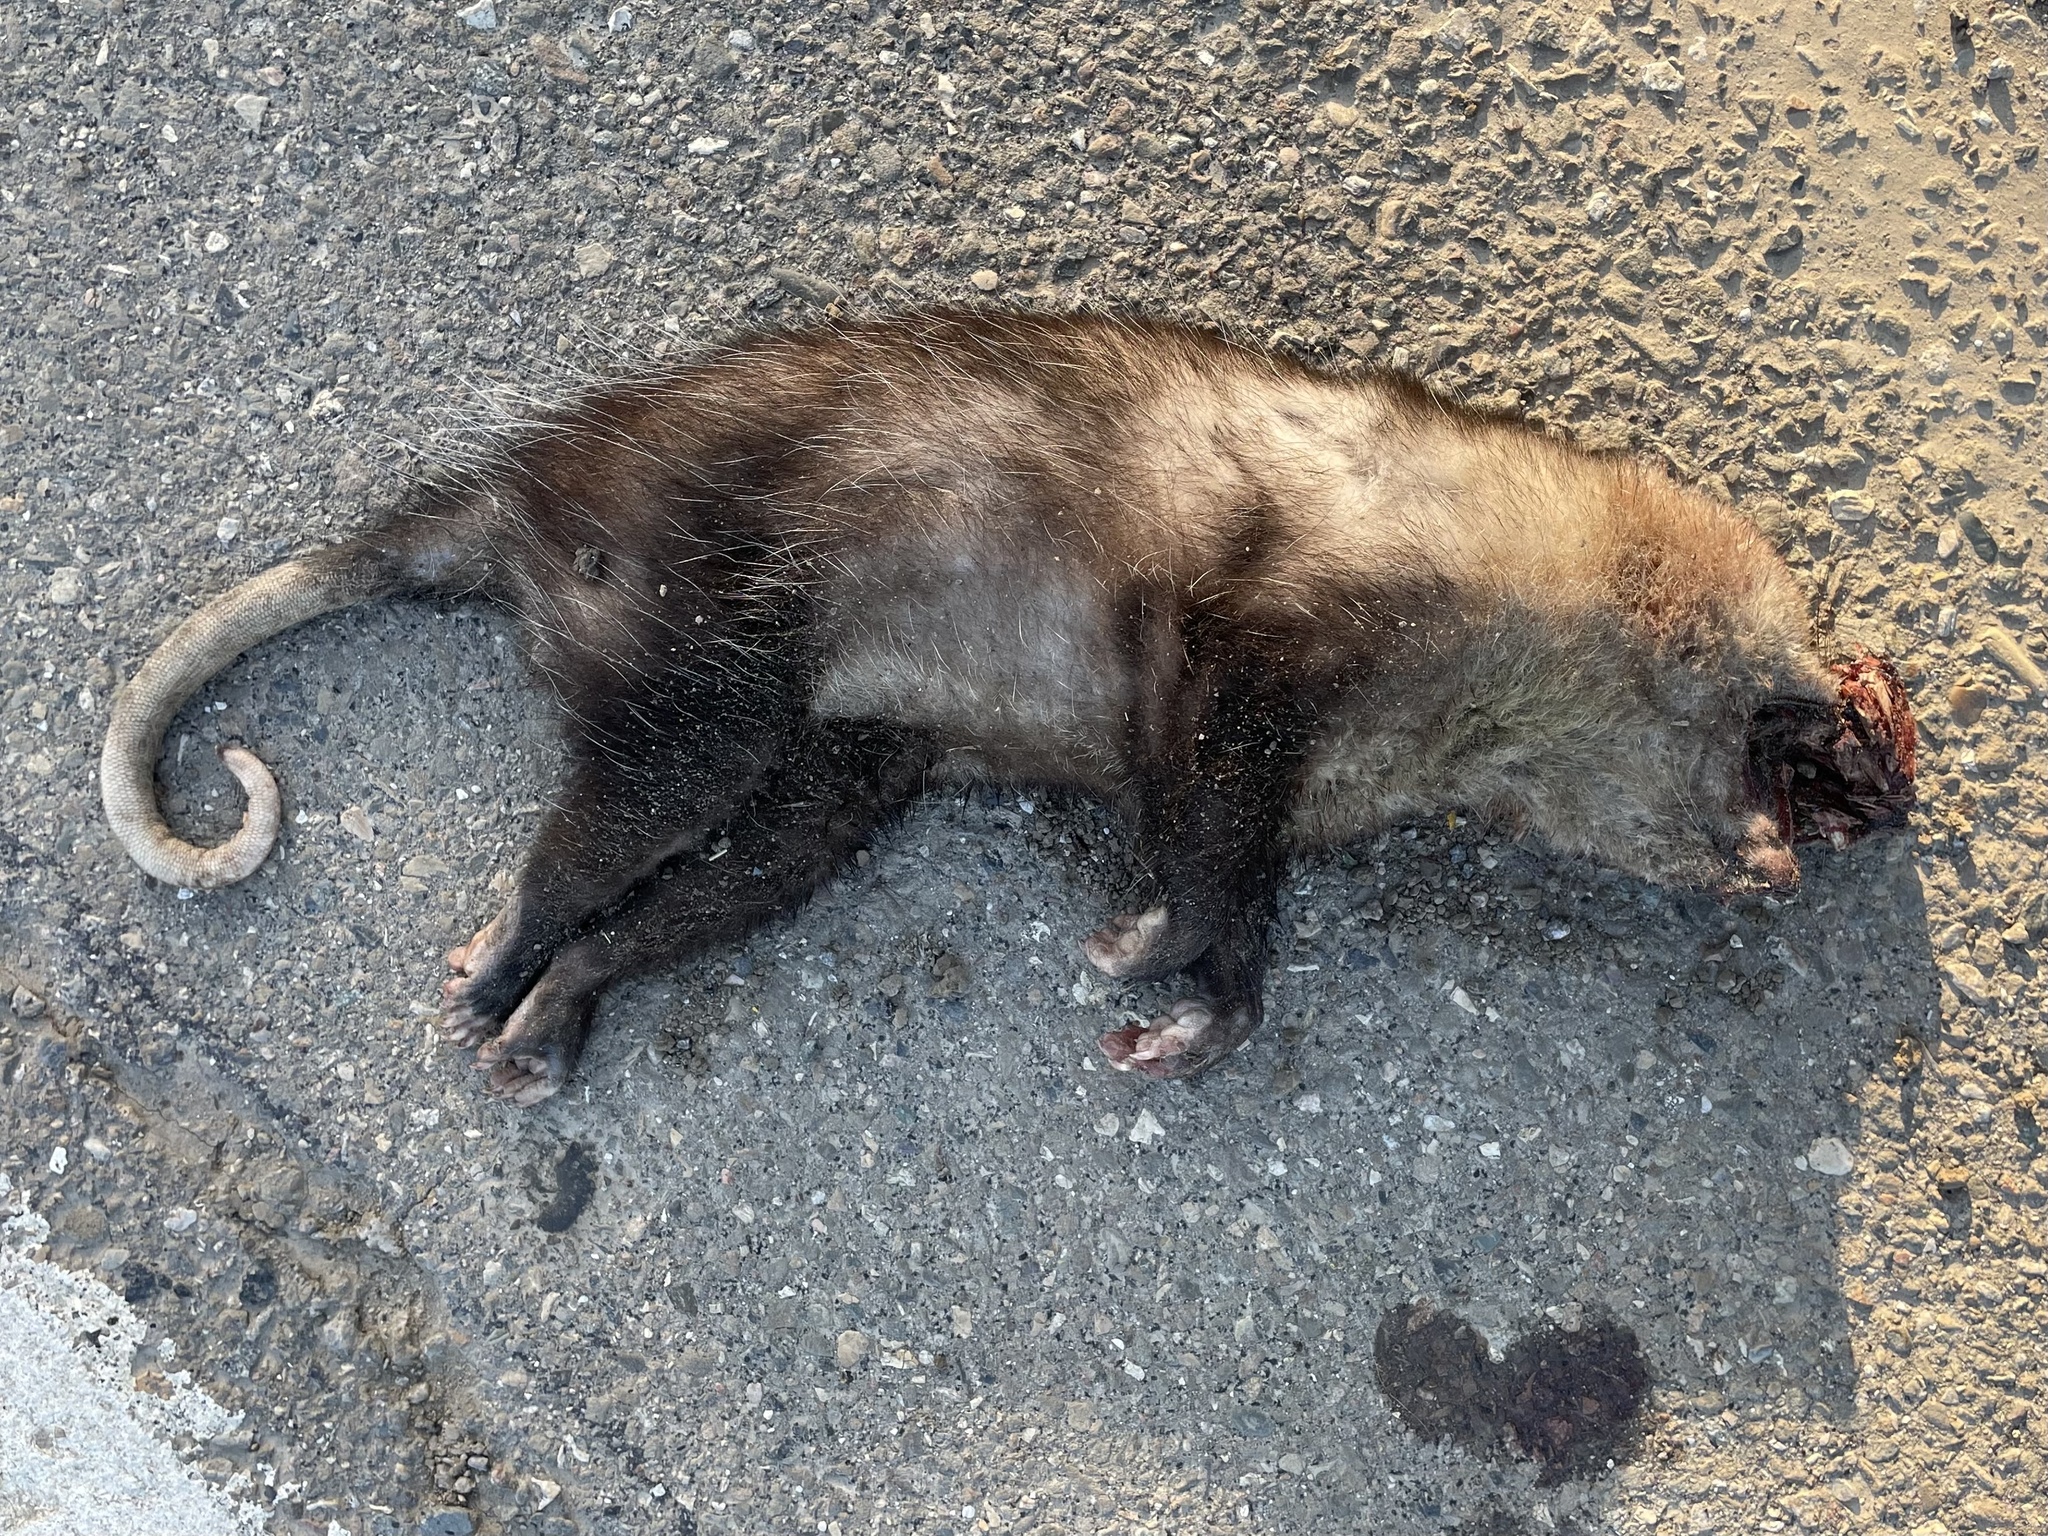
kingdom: Animalia
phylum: Chordata
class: Mammalia
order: Didelphimorphia
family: Didelphidae
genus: Didelphis
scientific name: Didelphis virginiana
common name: Virginia opossum
